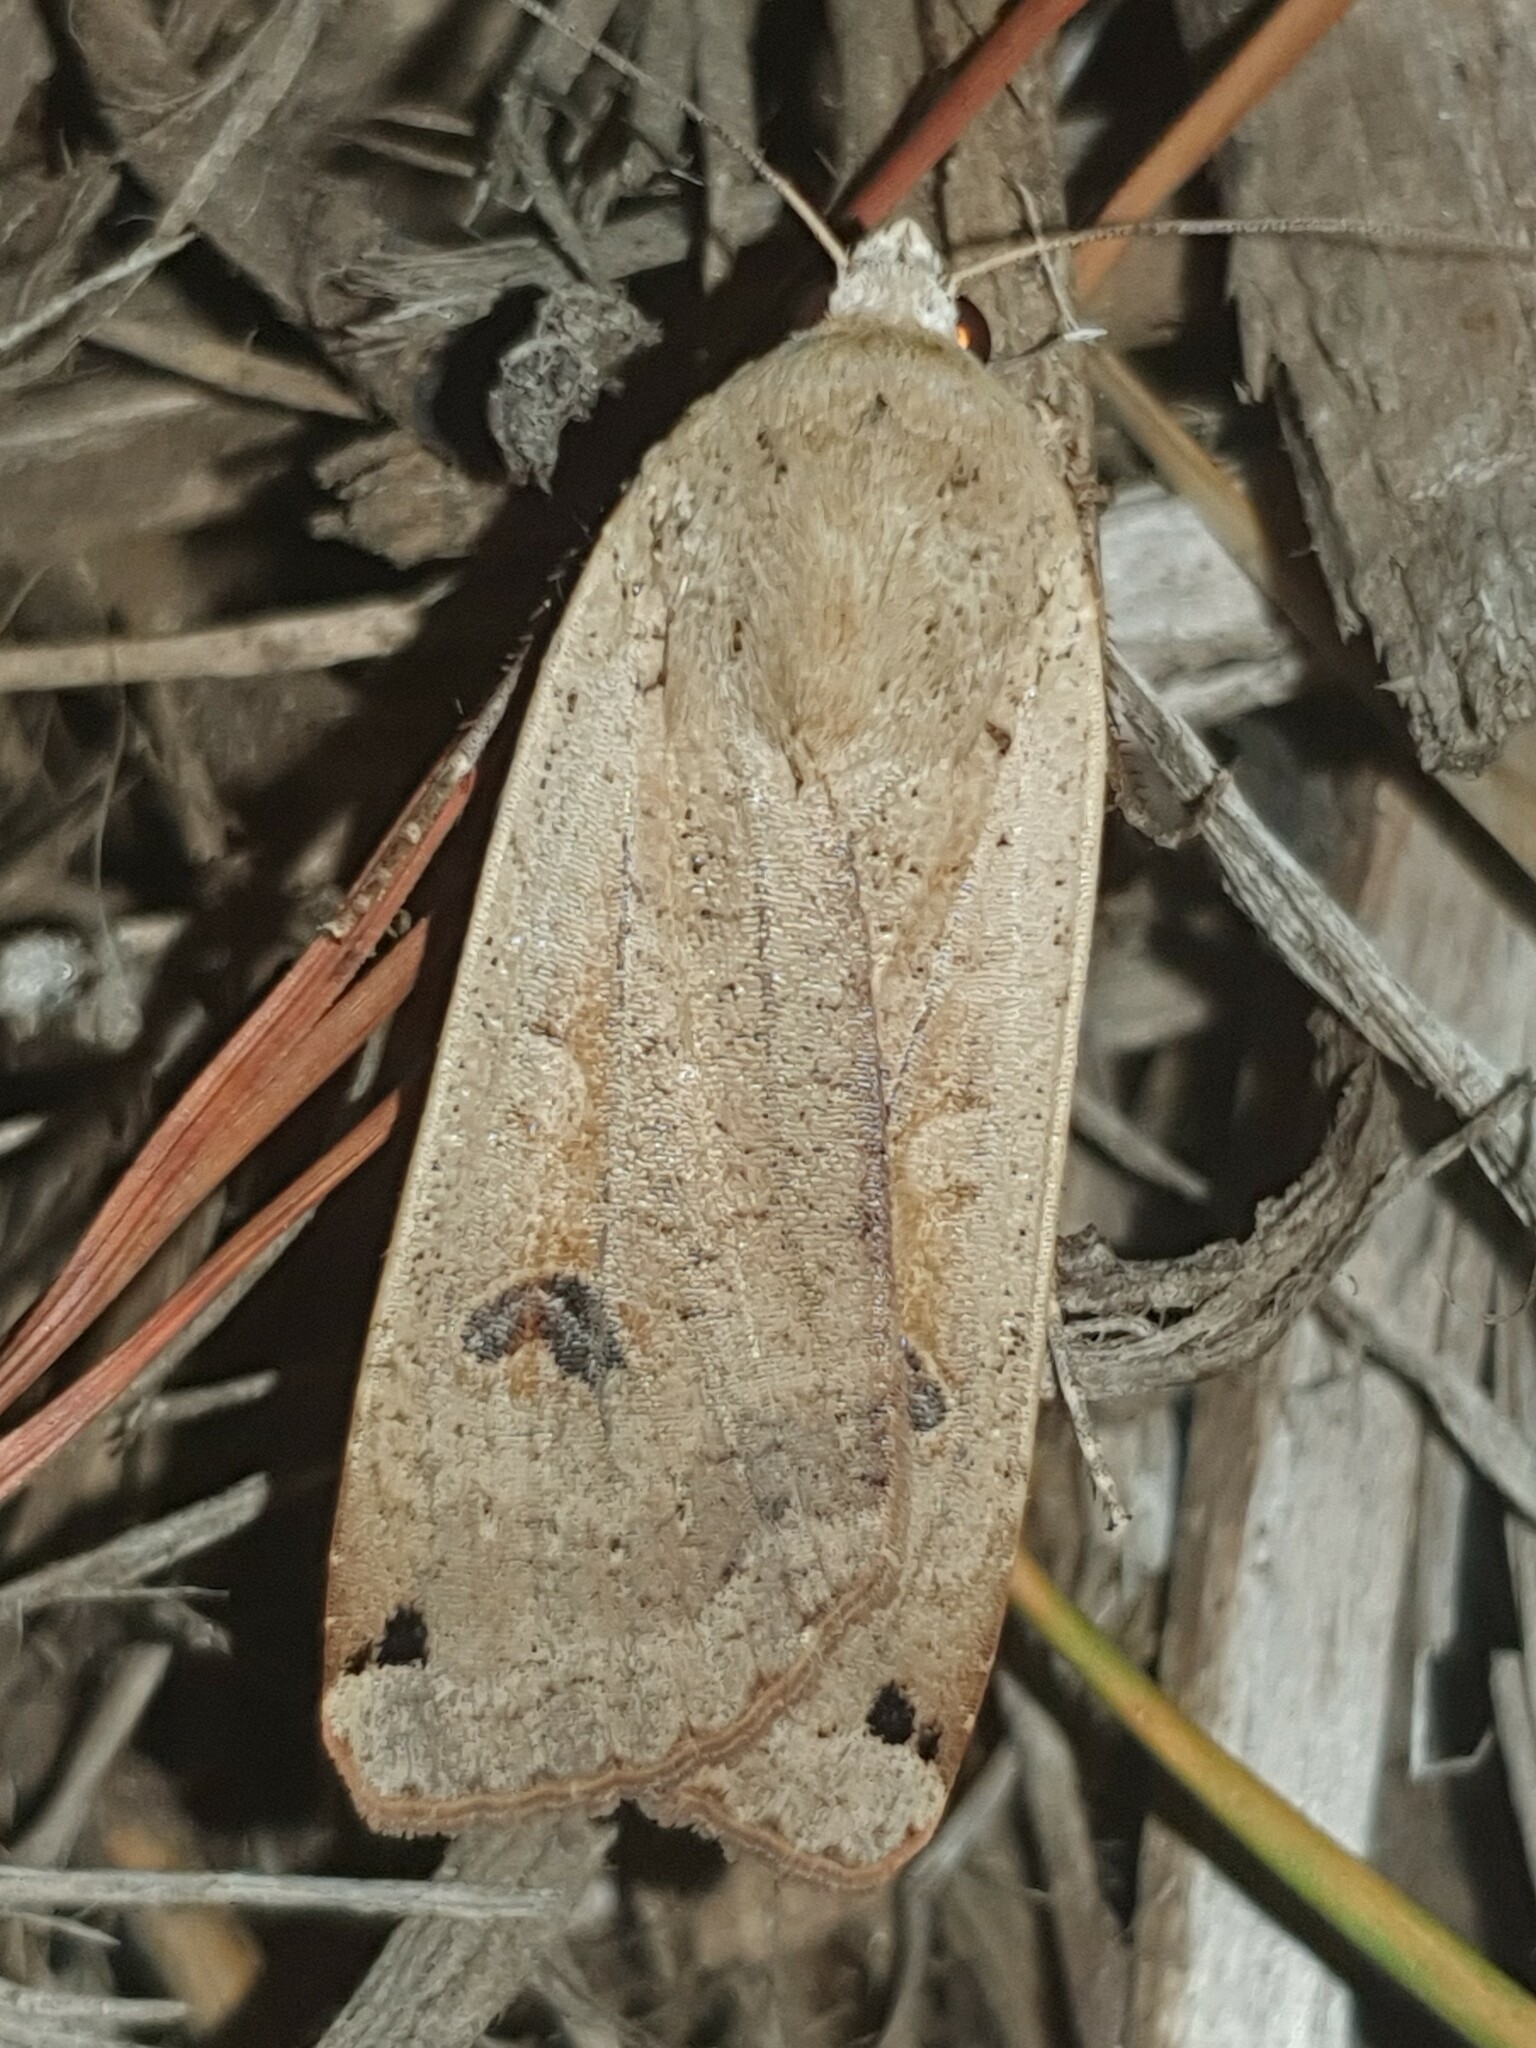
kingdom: Animalia
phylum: Arthropoda
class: Insecta
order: Lepidoptera
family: Noctuidae
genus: Noctua
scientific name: Noctua pronuba
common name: Large yellow underwing
